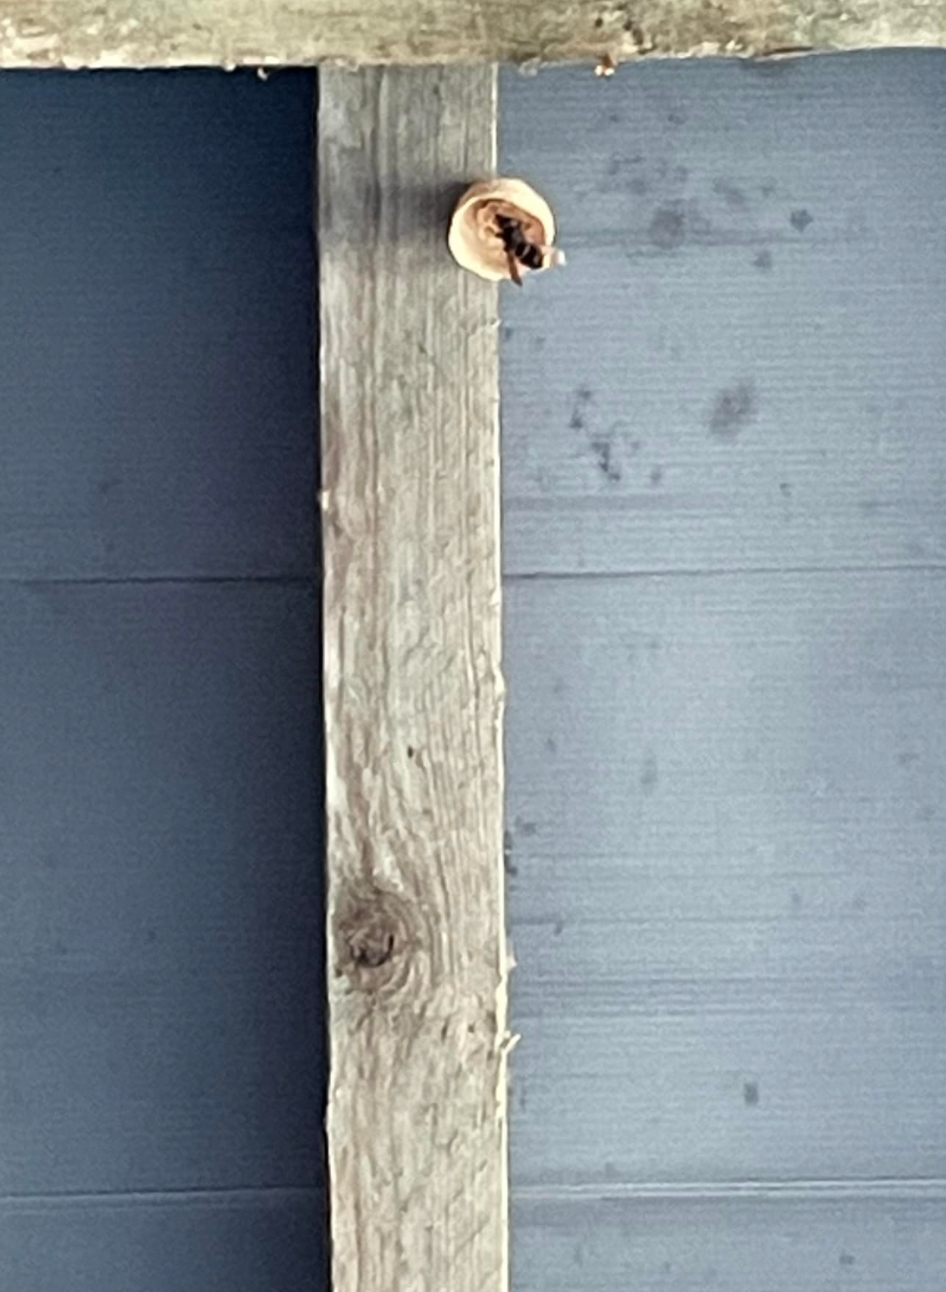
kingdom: Animalia
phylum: Arthropoda
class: Insecta
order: Hymenoptera
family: Vespidae
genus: Vespa
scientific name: Vespa velutina
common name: Asian hornet
